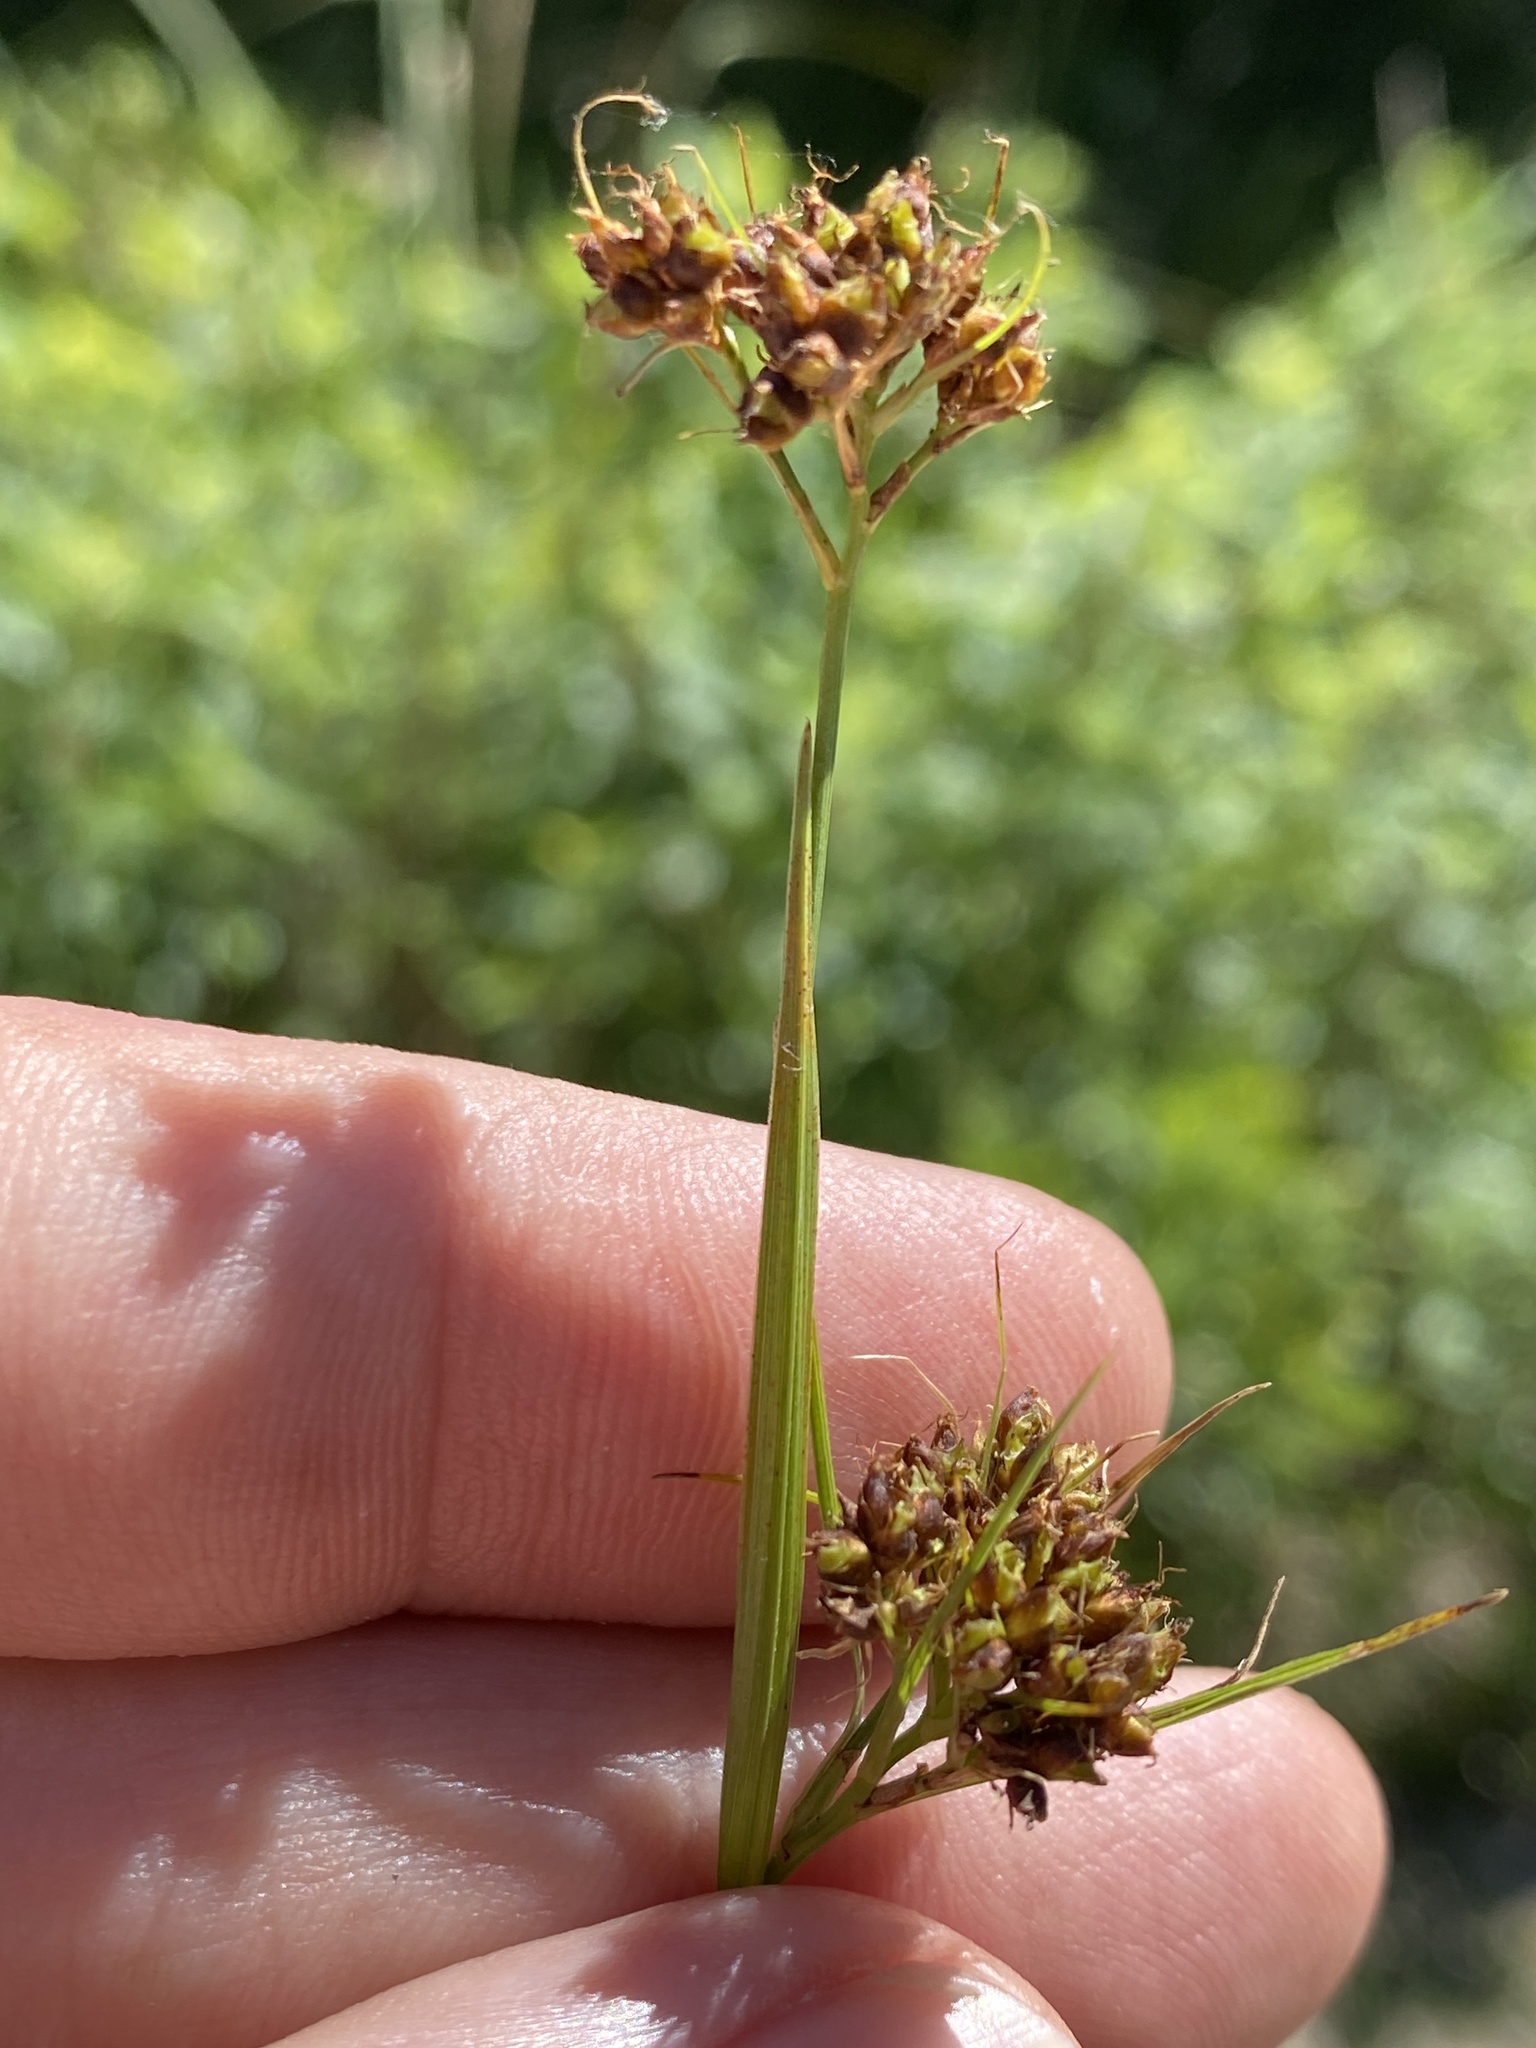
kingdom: Plantae
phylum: Tracheophyta
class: Liliopsida
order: Poales
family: Cyperaceae
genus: Rhynchospora
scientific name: Rhynchospora compressa
